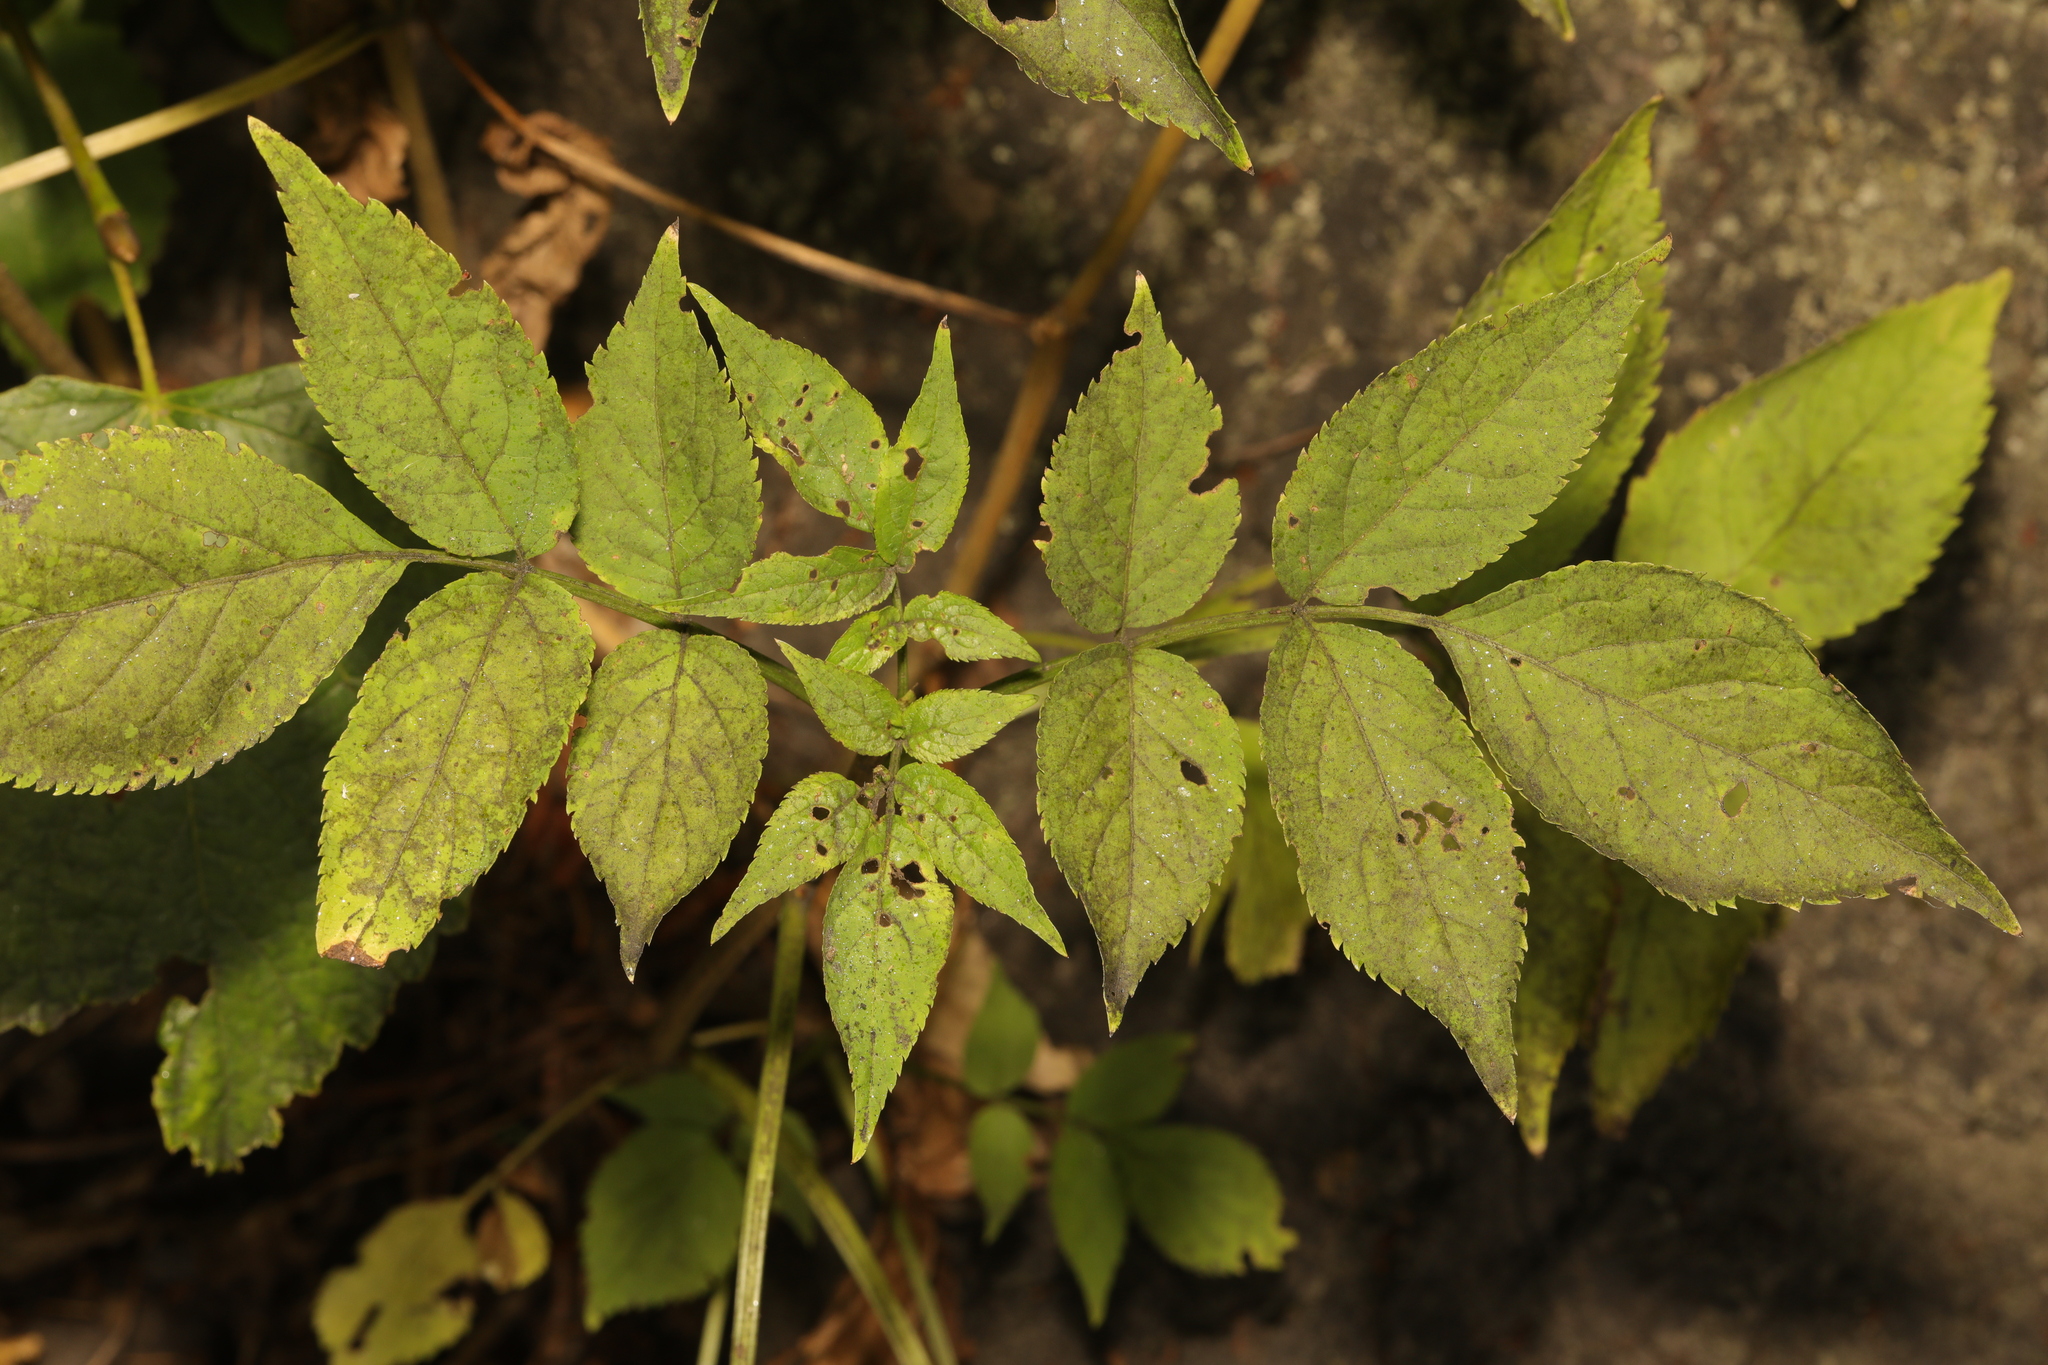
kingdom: Plantae
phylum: Tracheophyta
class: Magnoliopsida
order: Dipsacales
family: Viburnaceae
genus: Sambucus
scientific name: Sambucus nigra
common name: Elder
